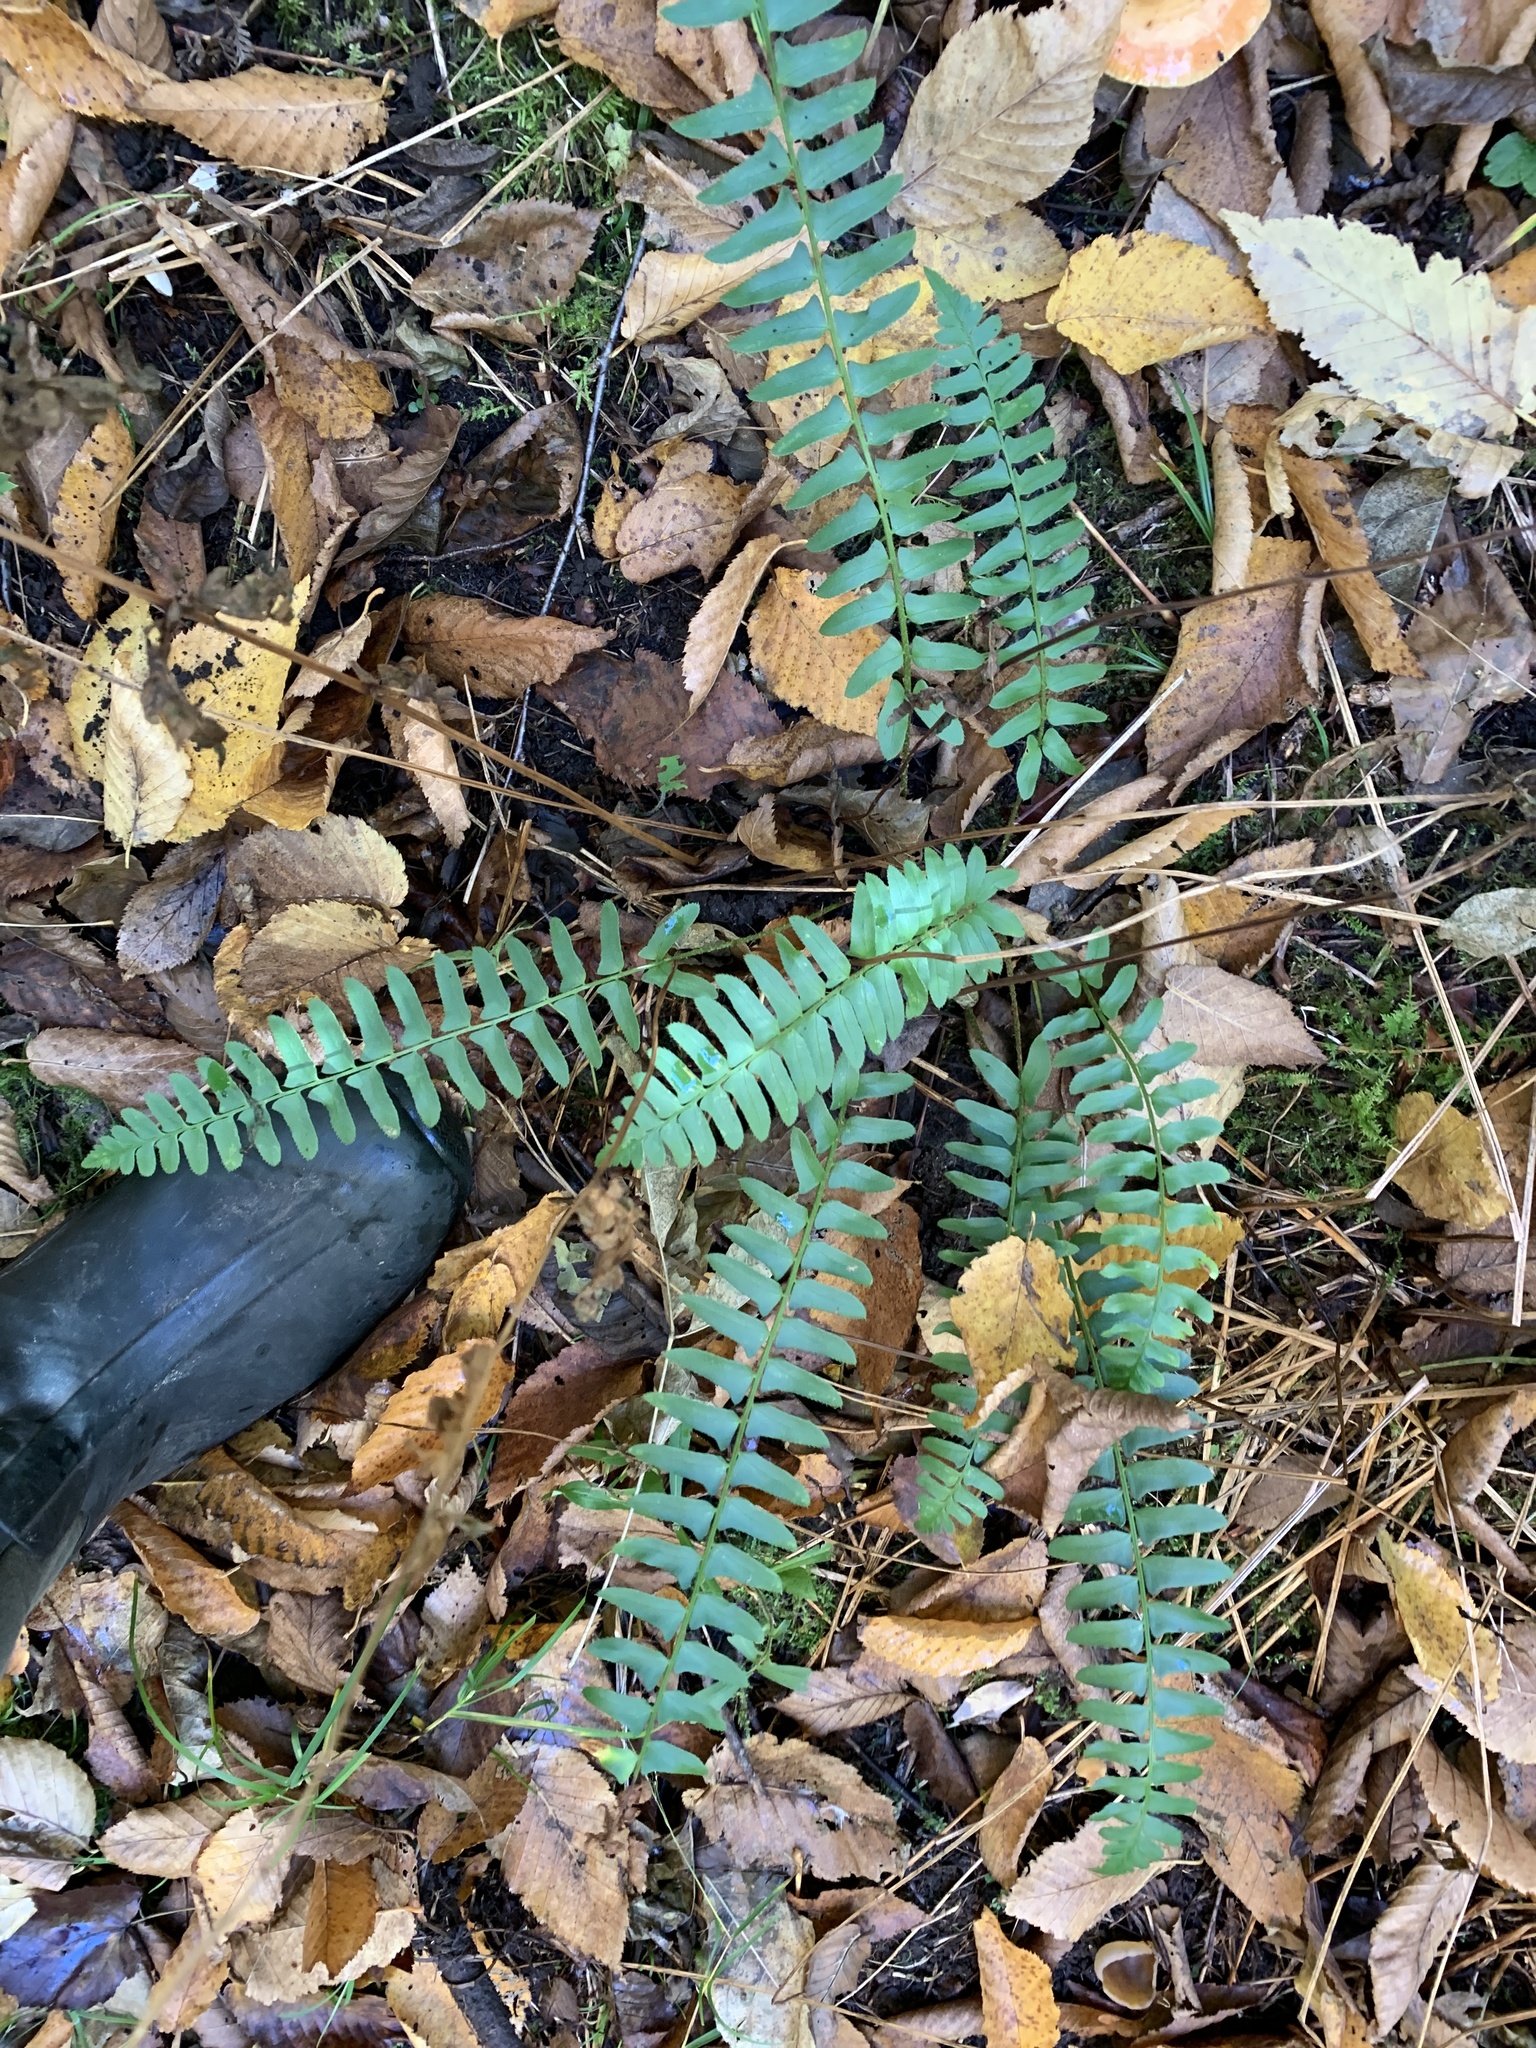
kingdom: Plantae
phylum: Tracheophyta
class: Polypodiopsida
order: Polypodiales
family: Dryopteridaceae
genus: Polystichum
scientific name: Polystichum acrostichoides
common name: Christmas fern
